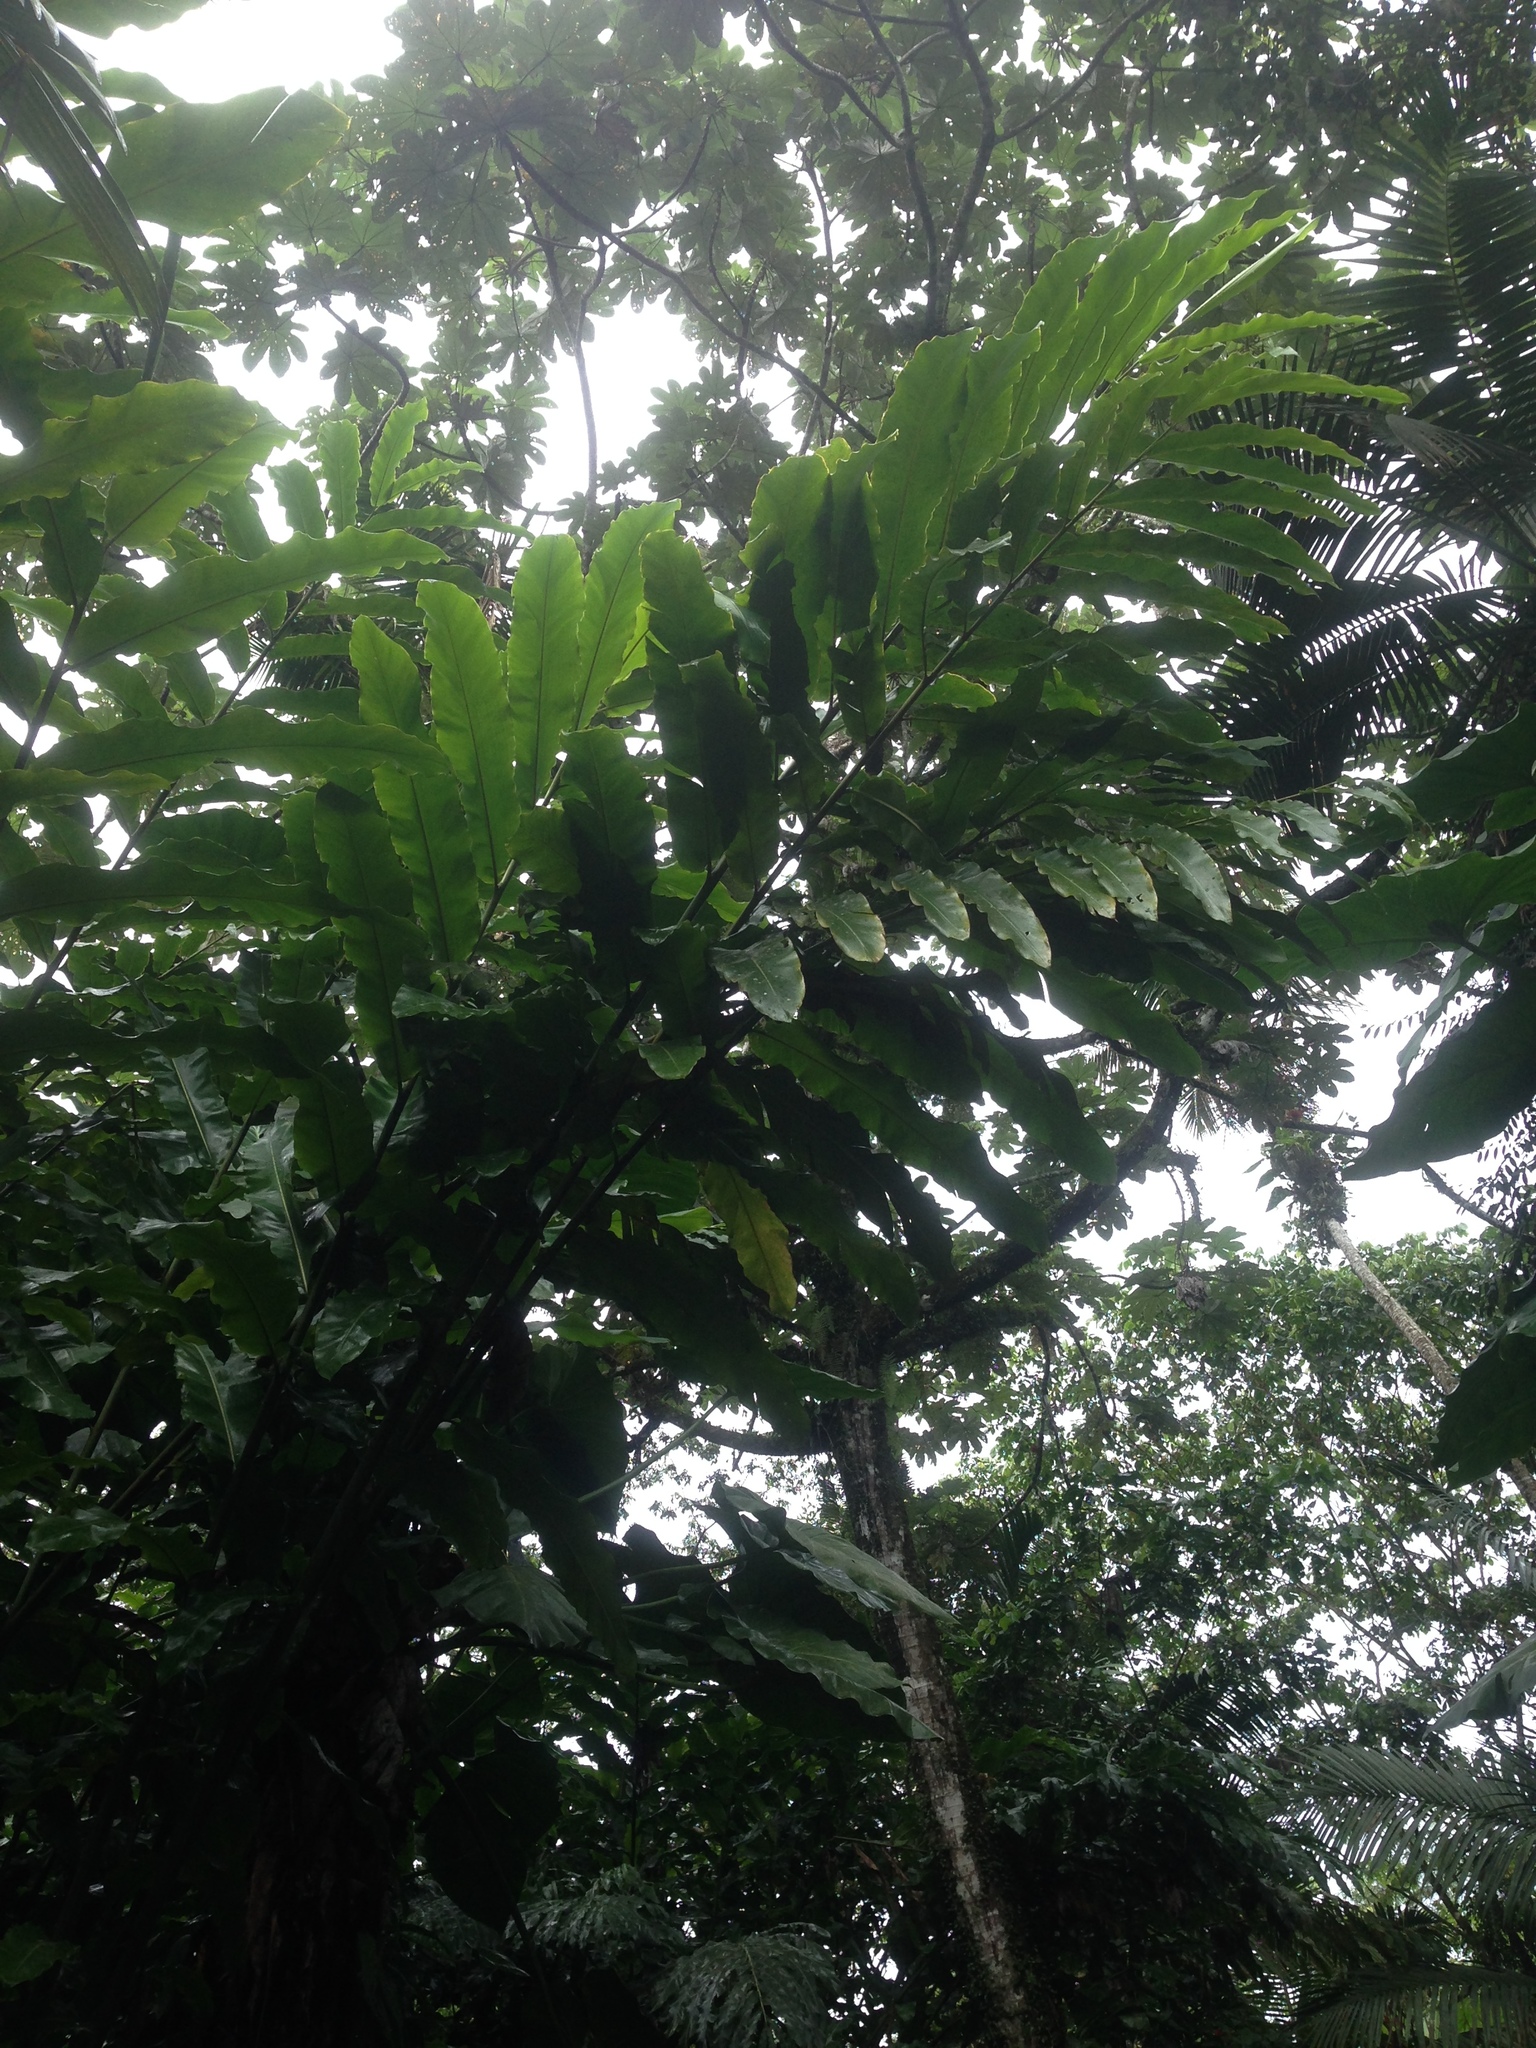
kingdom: Plantae
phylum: Tracheophyta
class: Liliopsida
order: Zingiberales
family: Zingiberaceae
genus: Etlingera
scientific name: Etlingera elatior
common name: Philippine waxflower
